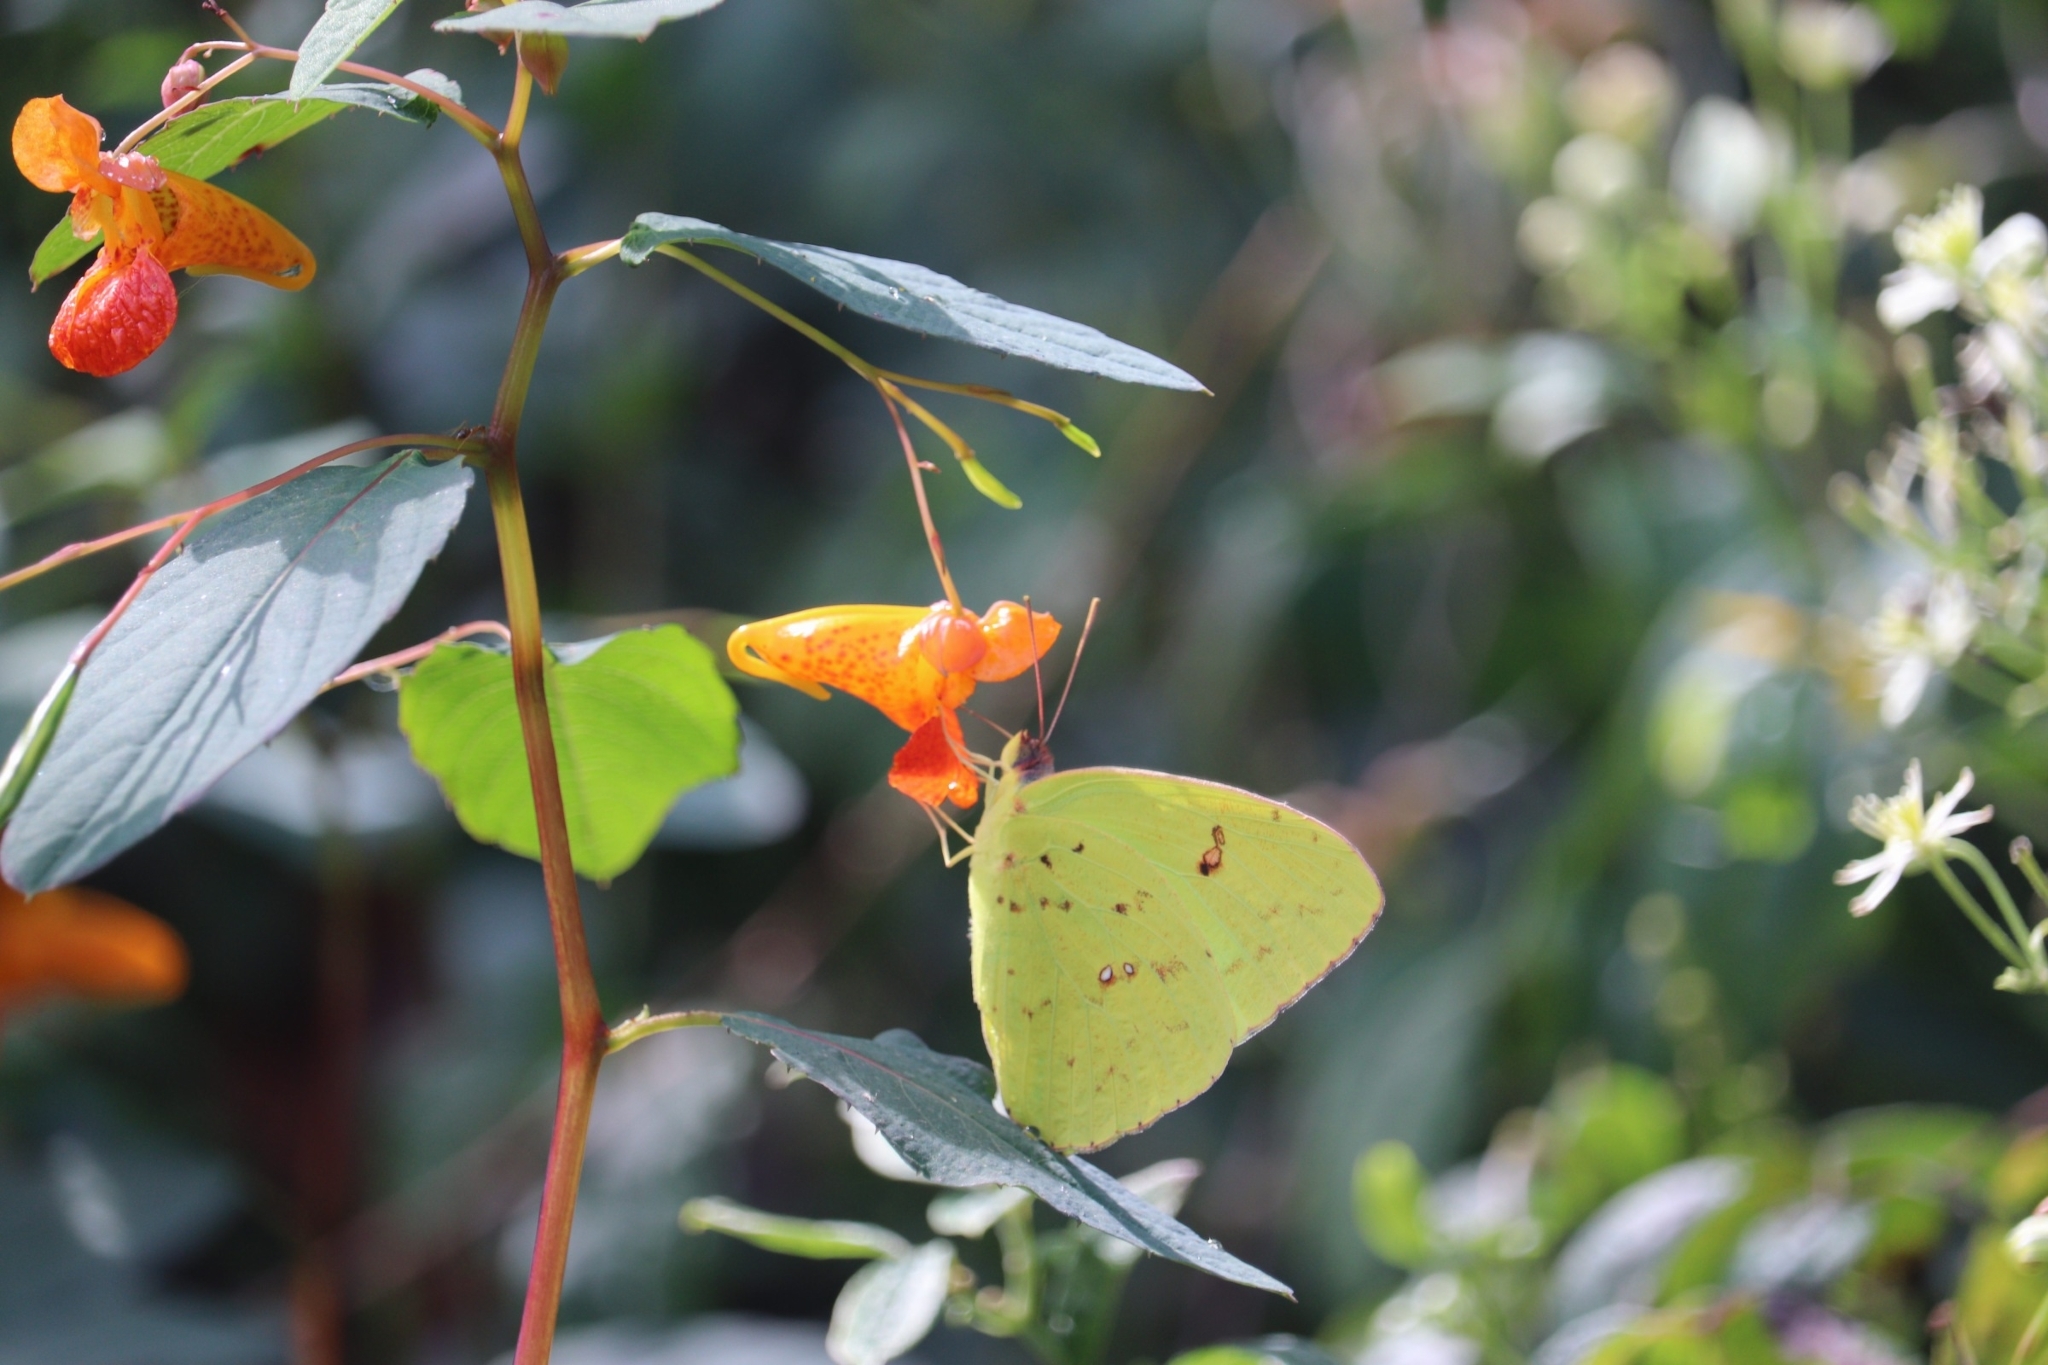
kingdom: Animalia
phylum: Arthropoda
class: Insecta
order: Lepidoptera
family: Pieridae
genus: Phoebis
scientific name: Phoebis sennae
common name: Cloudless sulphur
